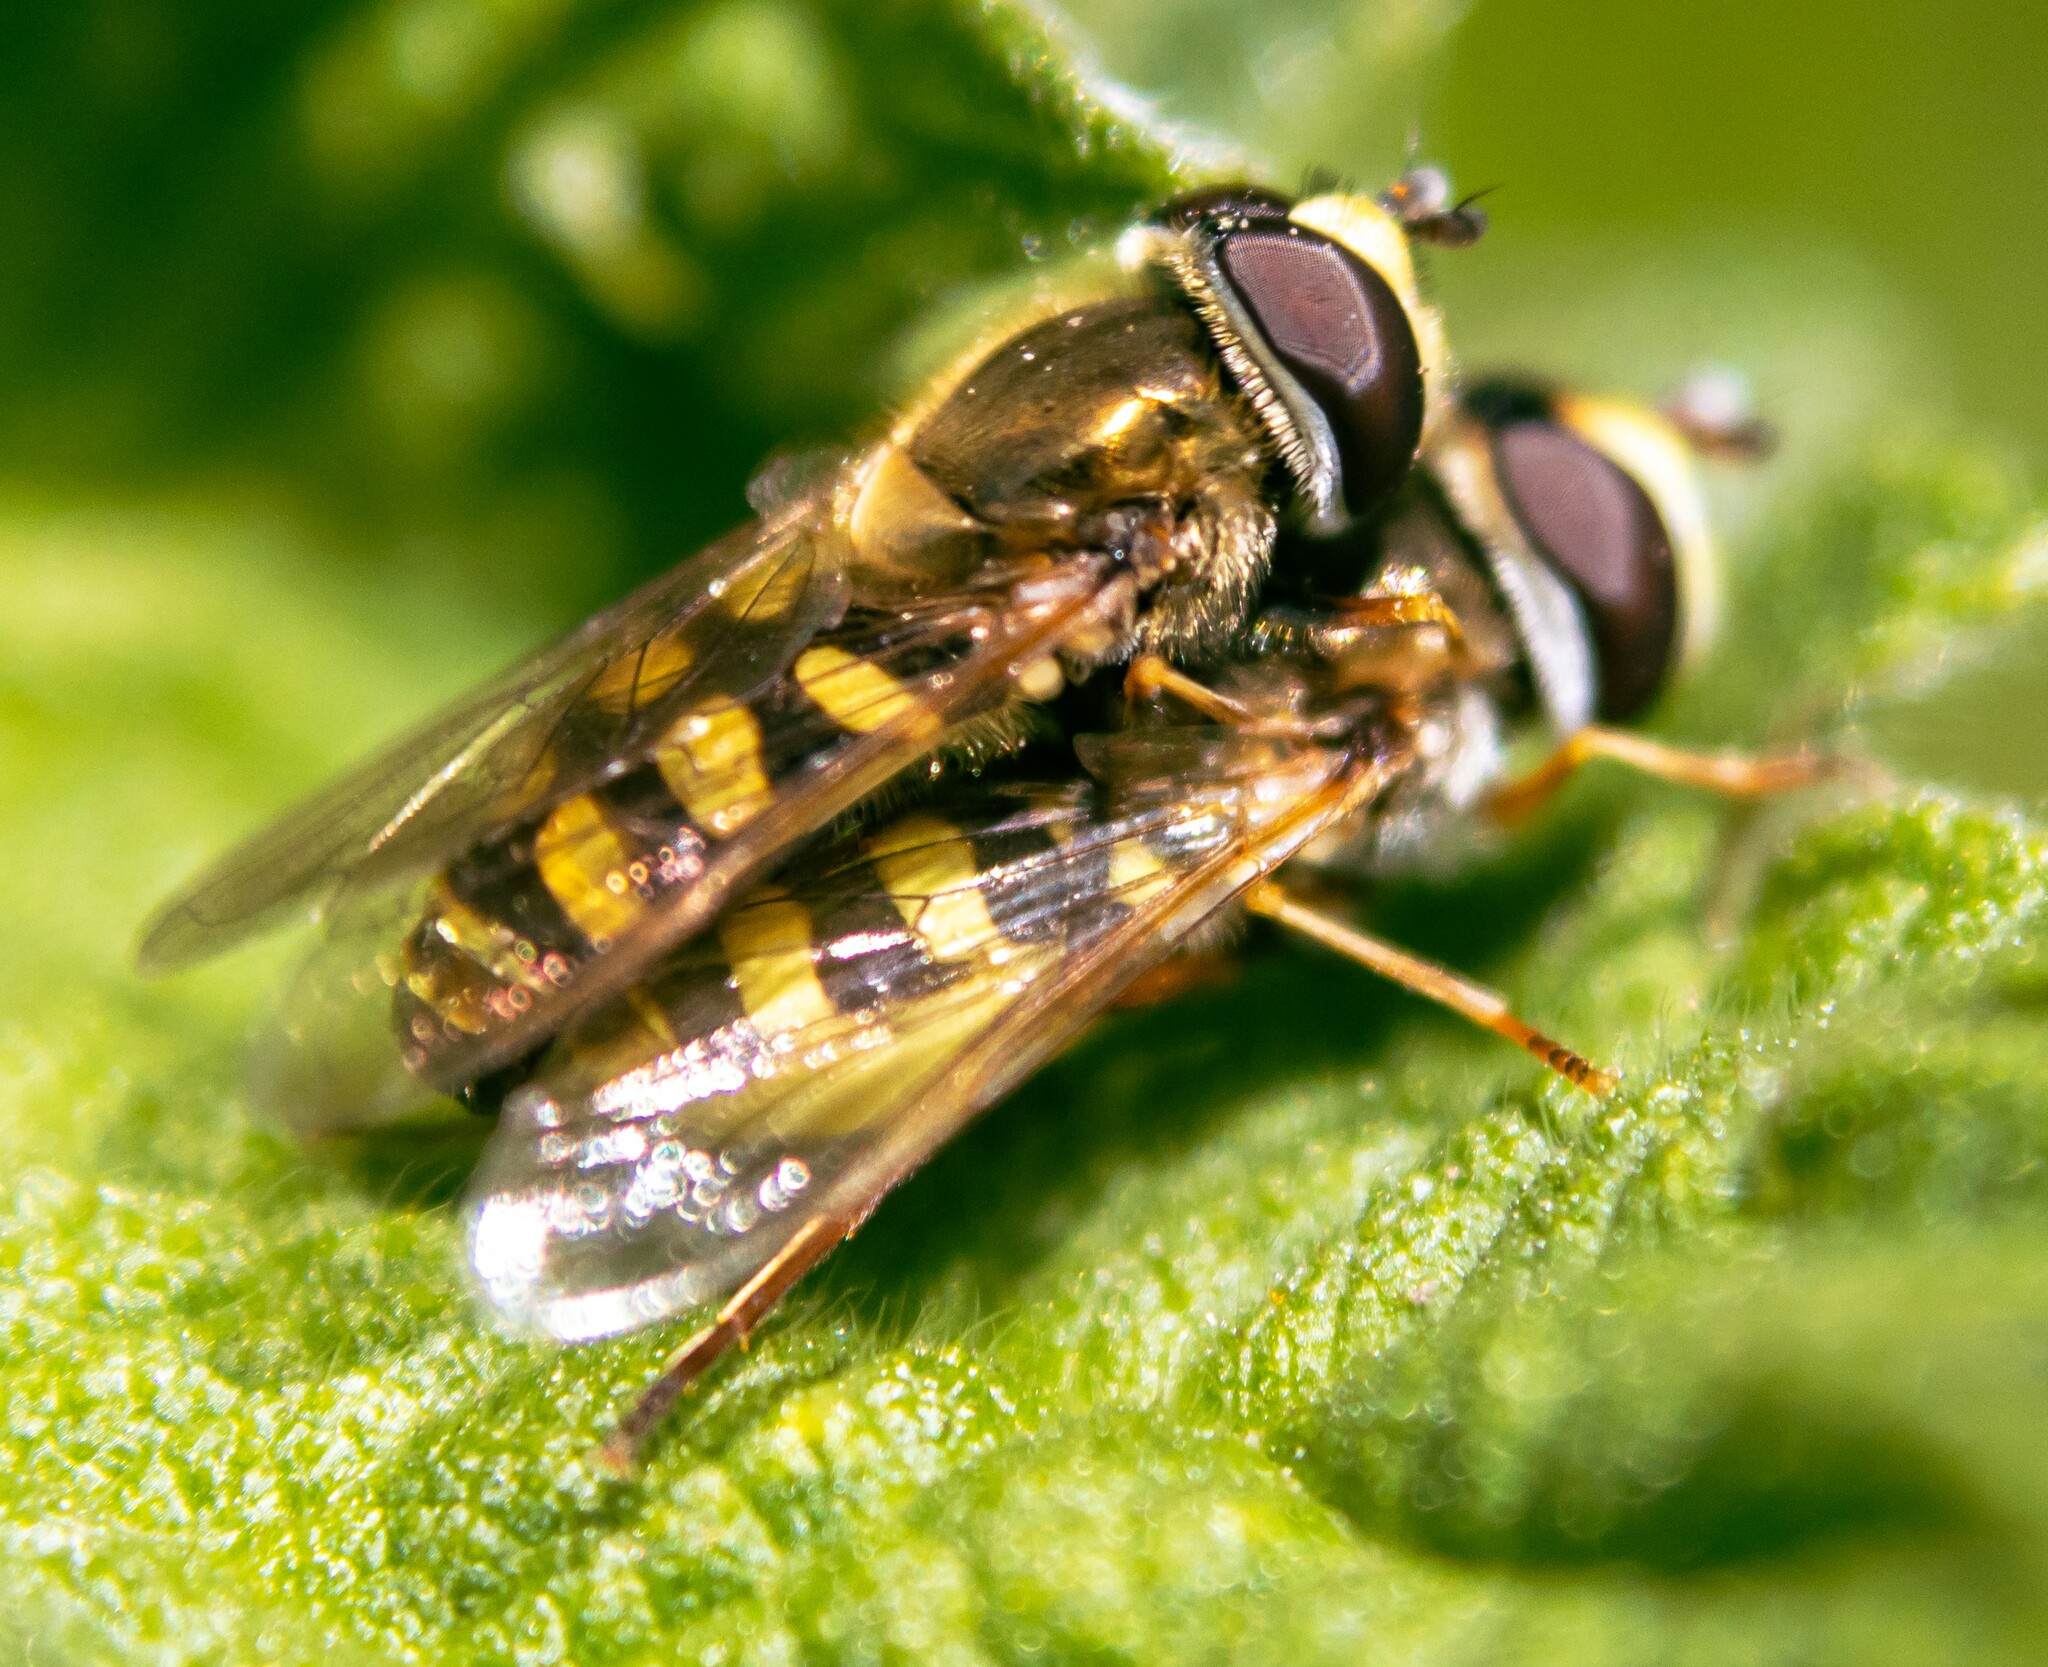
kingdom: Animalia
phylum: Arthropoda
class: Insecta
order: Diptera
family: Syrphidae
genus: Eupeodes
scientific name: Eupeodes corollae
